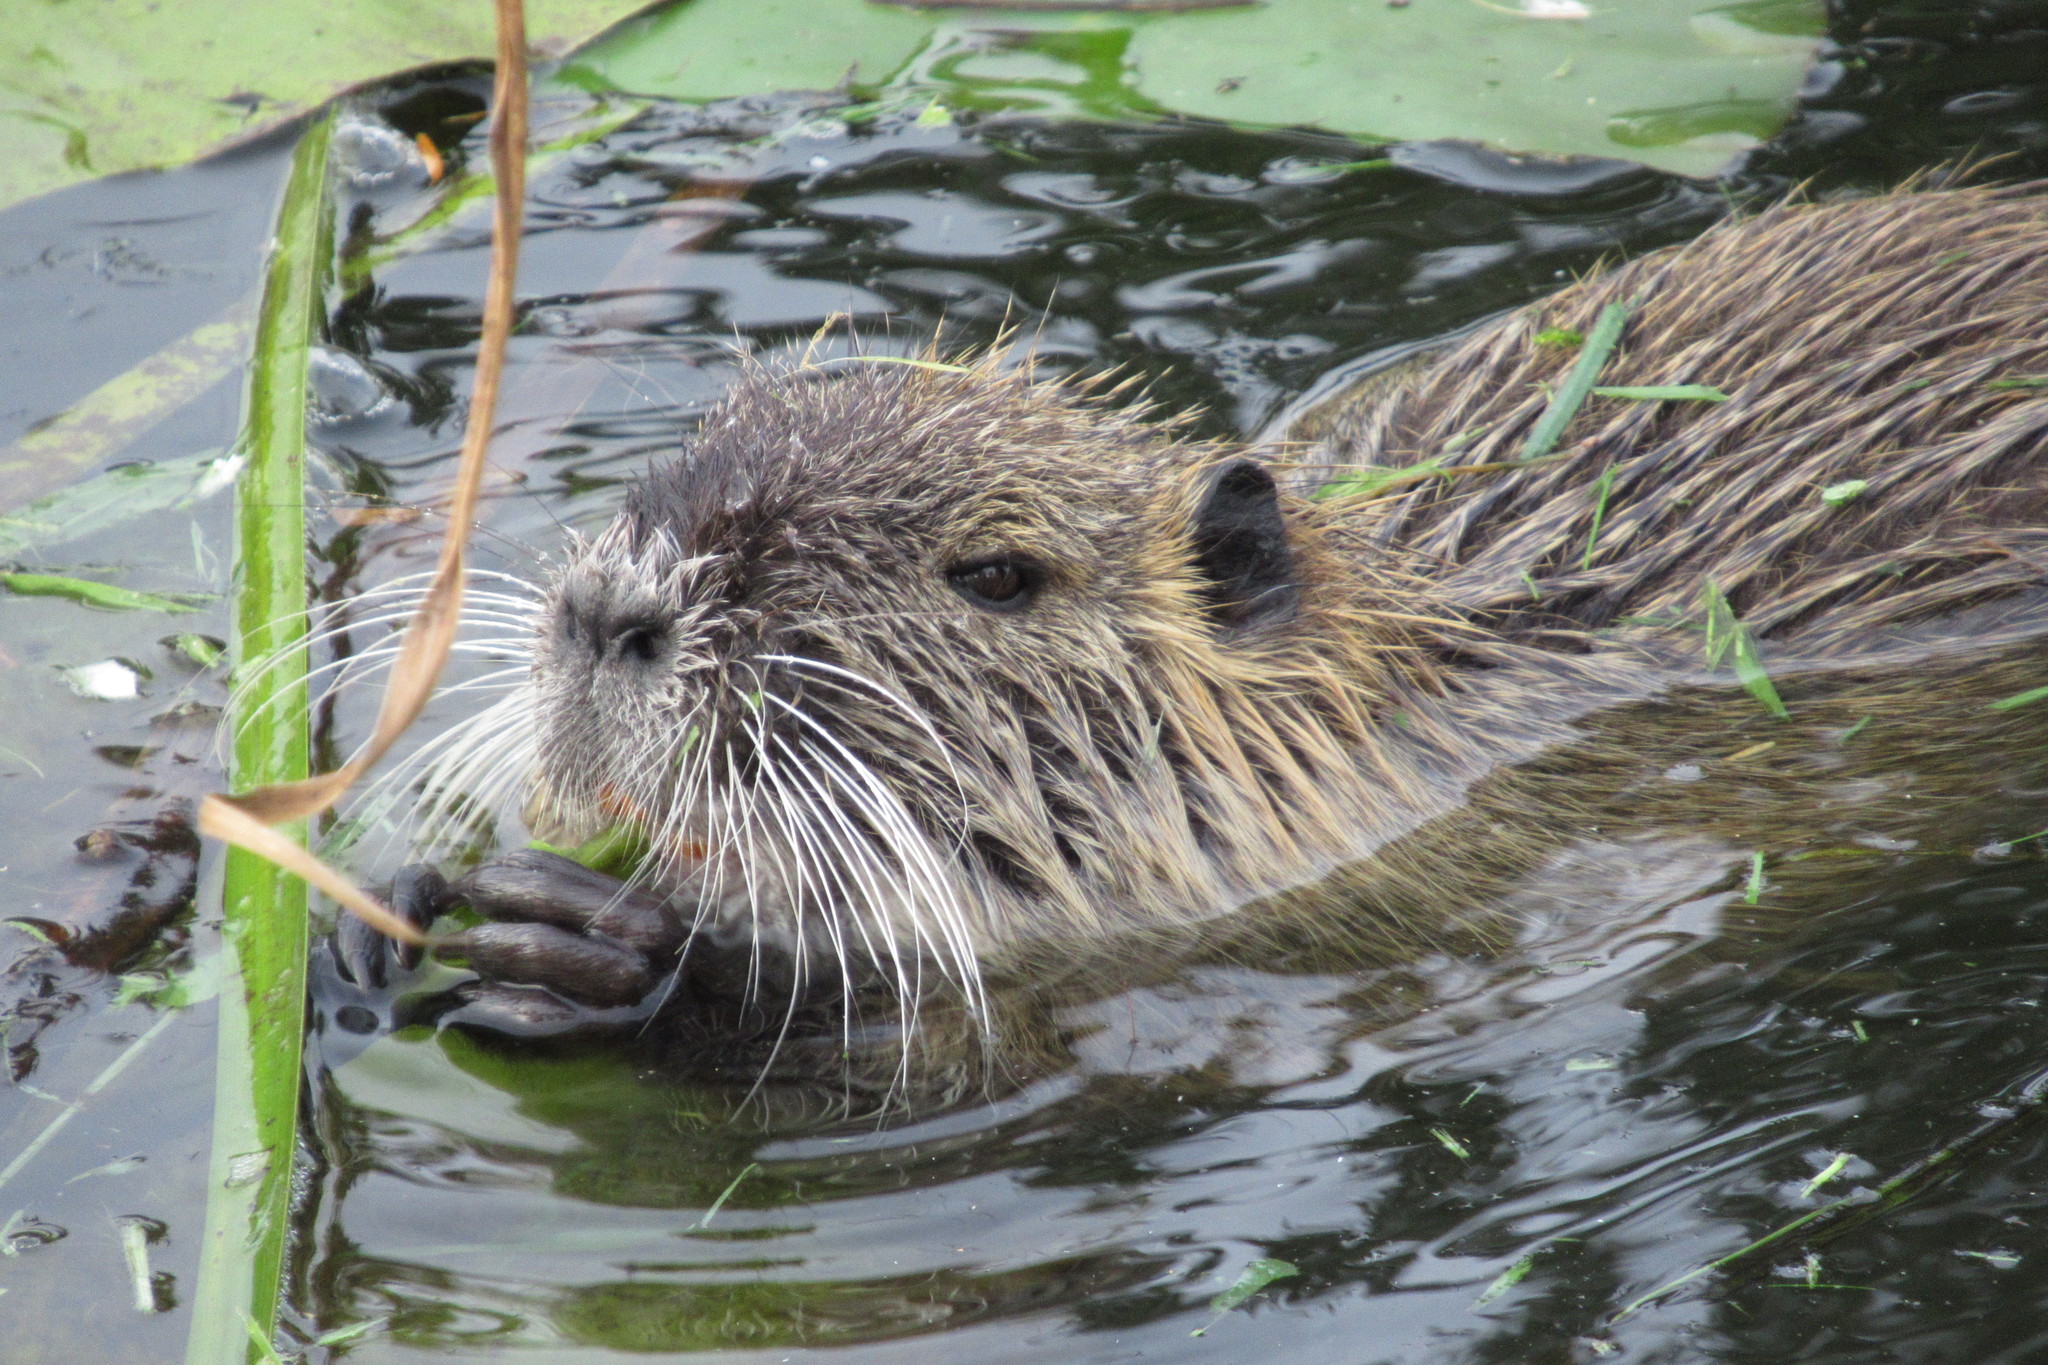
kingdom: Animalia
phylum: Chordata
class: Mammalia
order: Rodentia
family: Myocastoridae
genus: Myocastor
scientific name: Myocastor coypus
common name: Coypu
